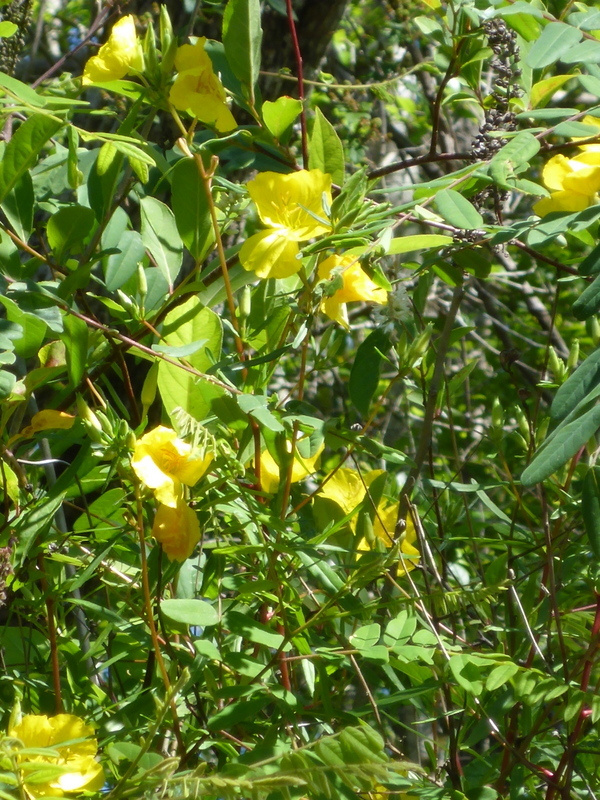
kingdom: Plantae
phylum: Tracheophyta
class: Magnoliopsida
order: Myrtales
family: Onagraceae
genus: Oenothera
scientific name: Oenothera fruticosa
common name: Southern sundrops
